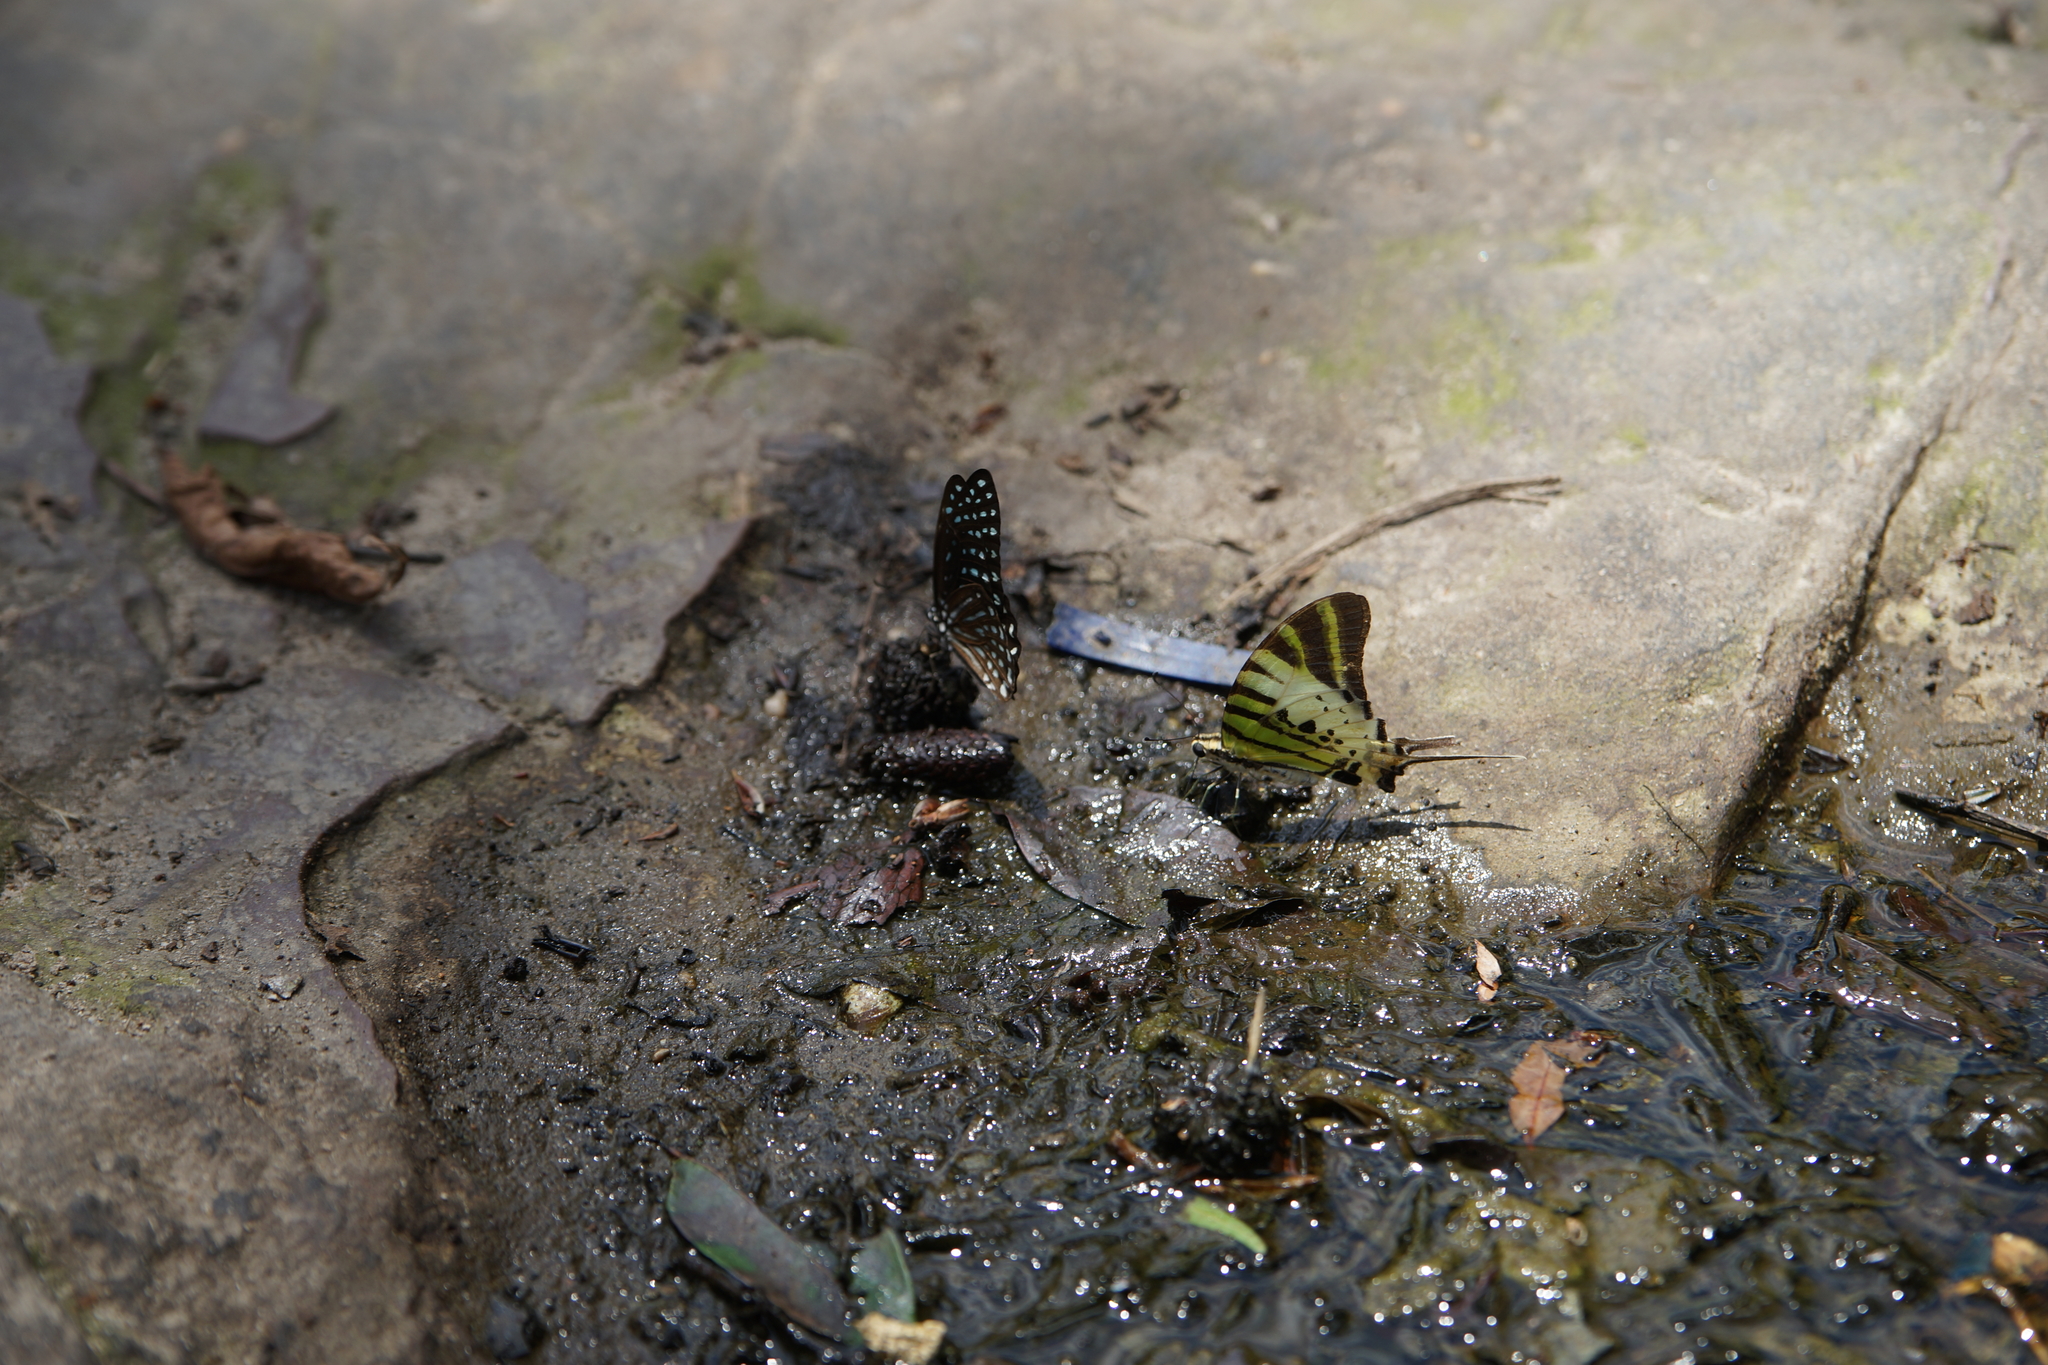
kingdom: Animalia
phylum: Arthropoda
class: Insecta
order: Lepidoptera
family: Papilionidae
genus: Graphium
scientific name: Graphium antiphates
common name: Fivebar swordtail
